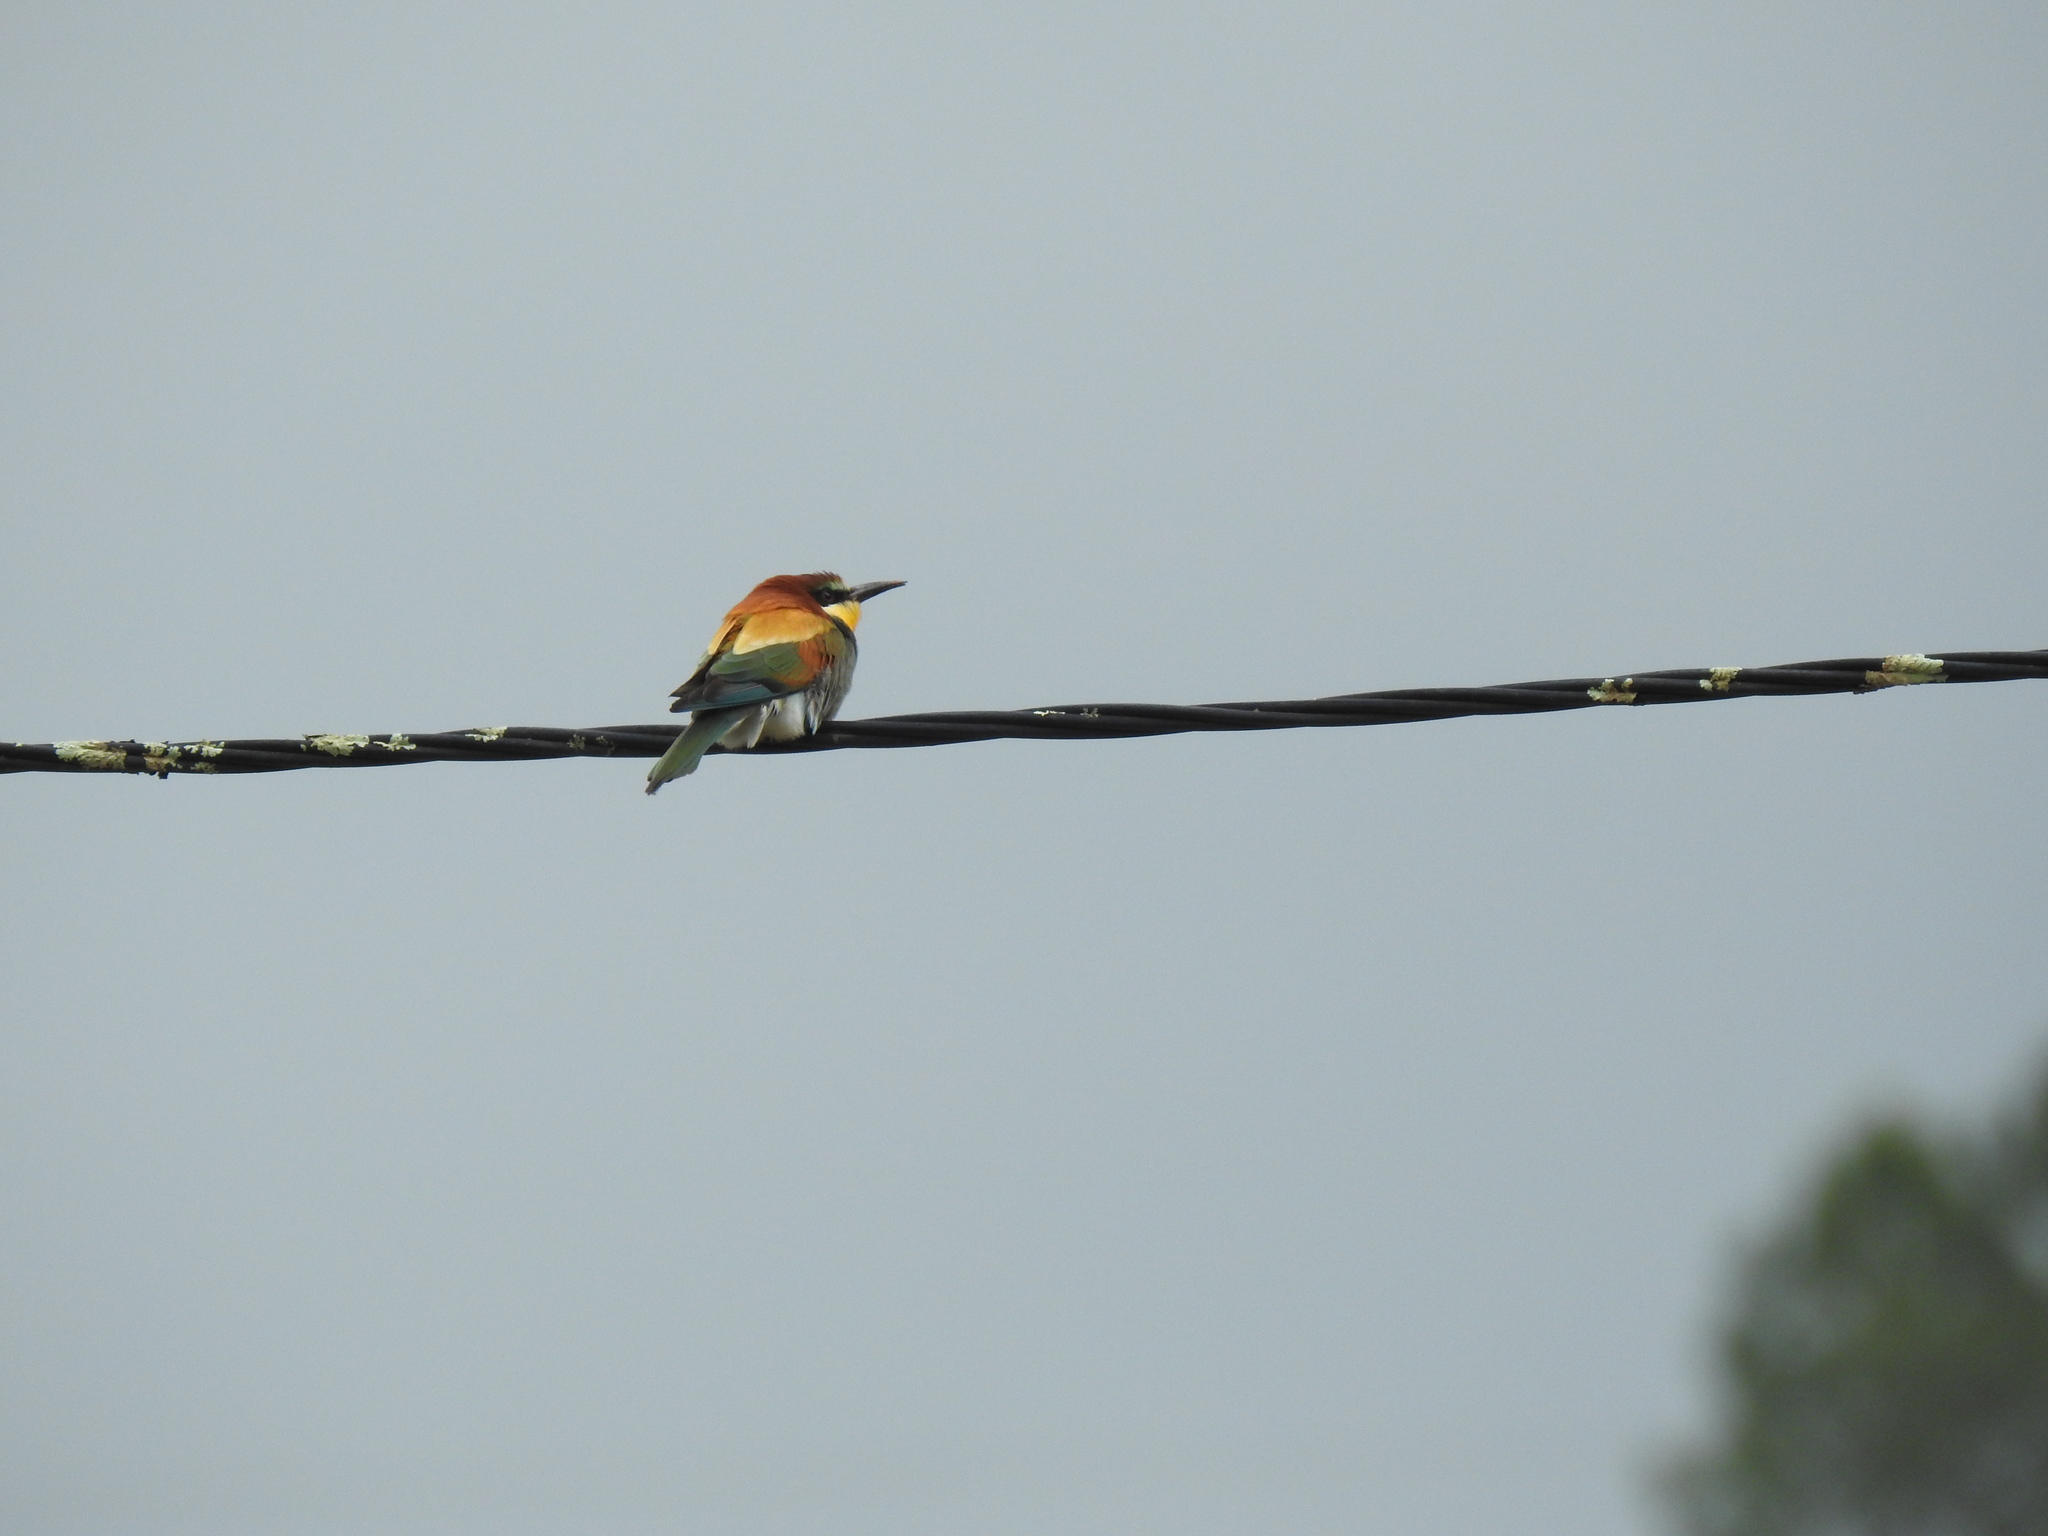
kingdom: Animalia
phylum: Chordata
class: Aves
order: Coraciiformes
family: Meropidae
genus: Merops
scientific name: Merops apiaster
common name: European bee-eater
